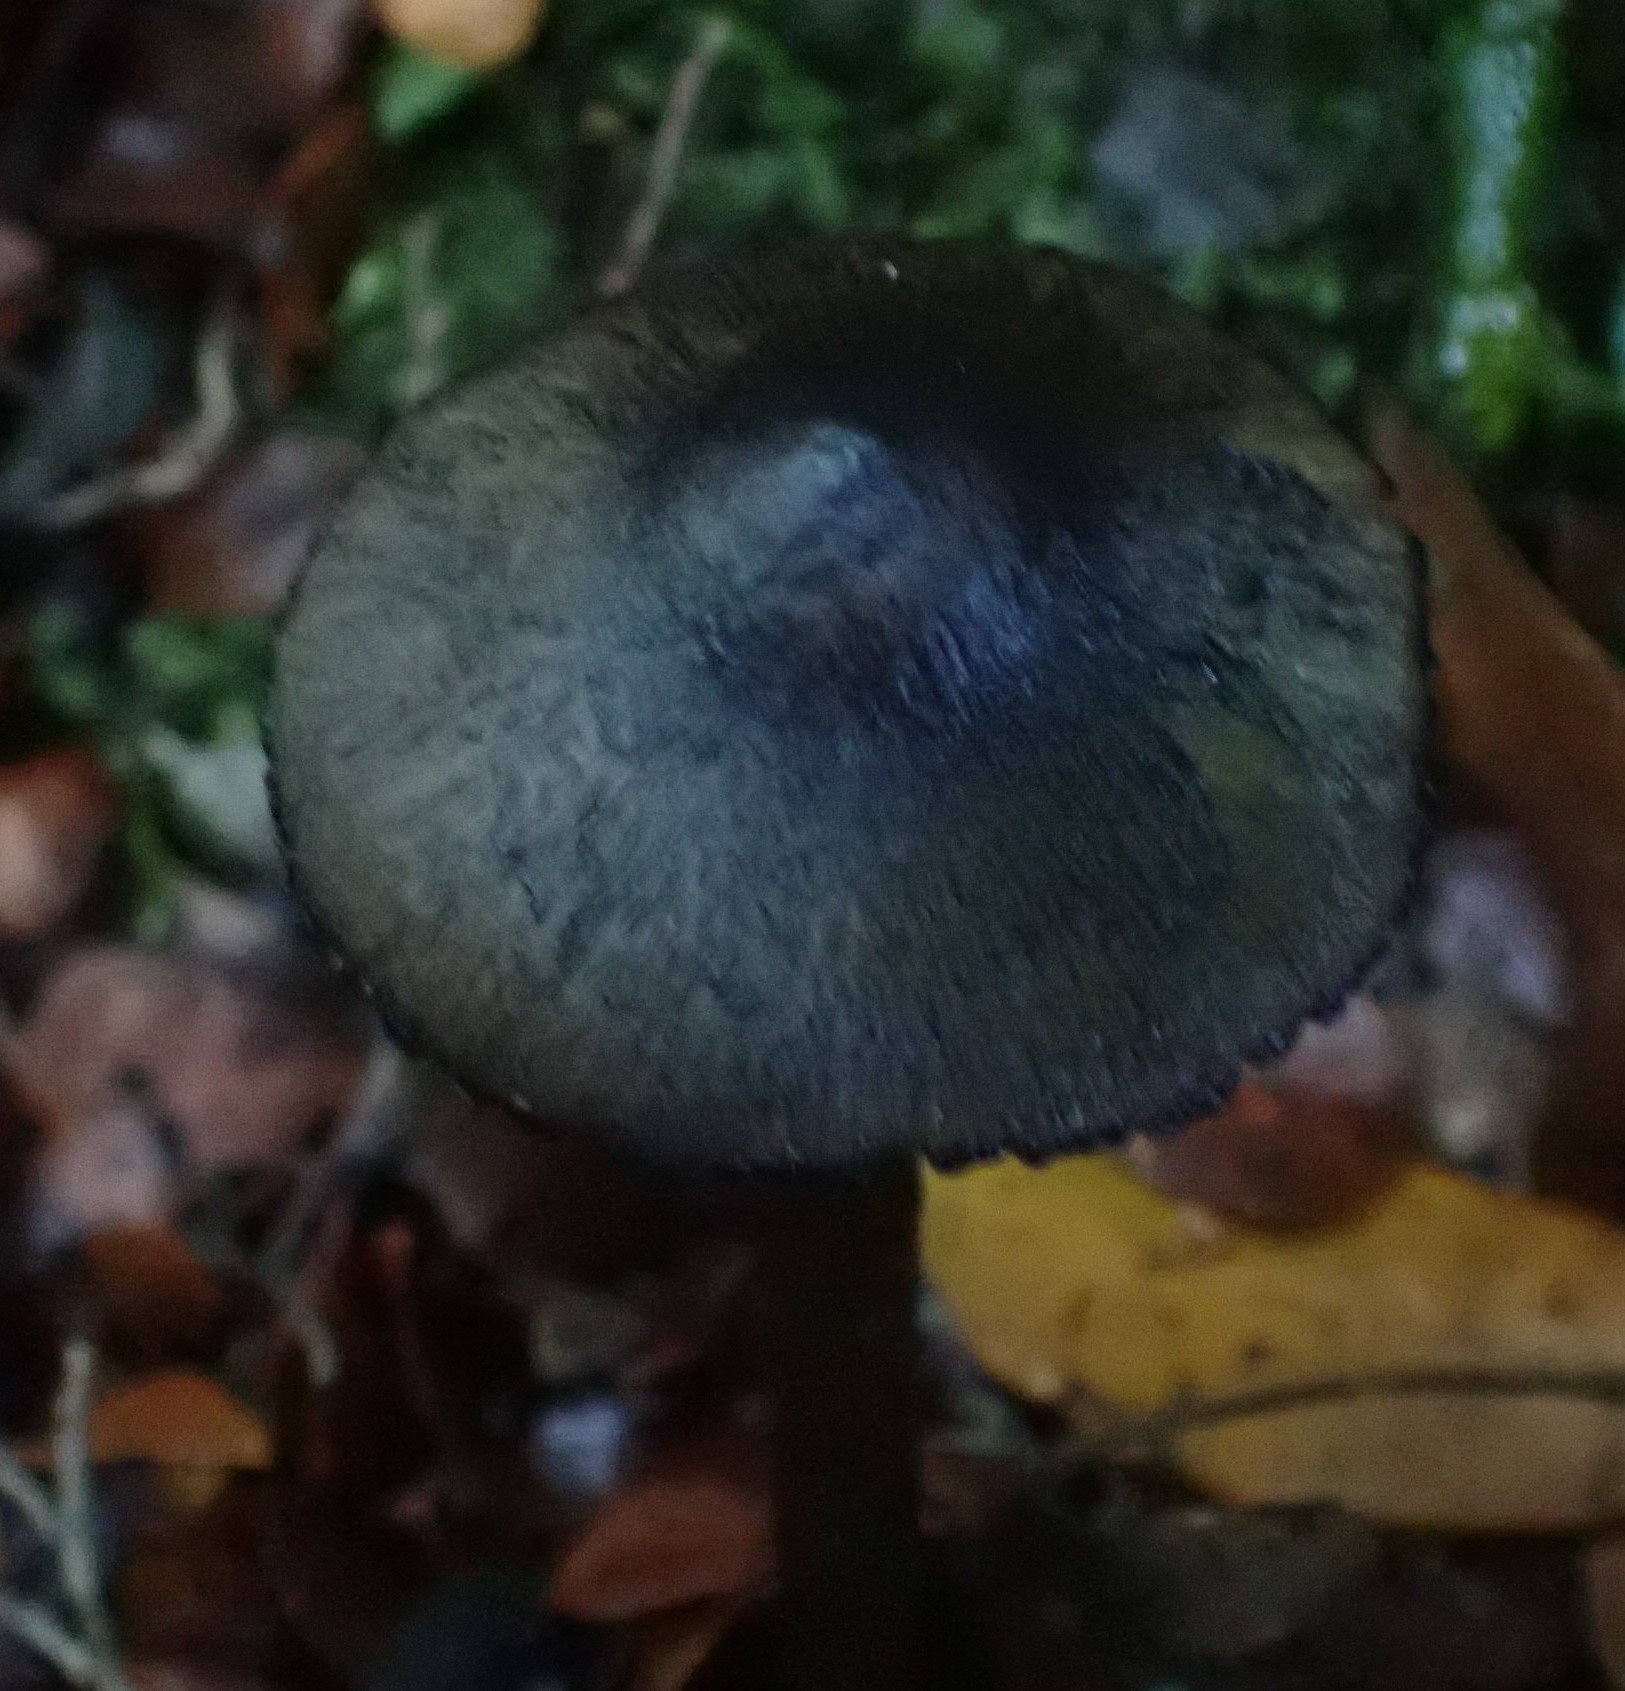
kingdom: Fungi
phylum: Basidiomycota
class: Agaricomycetes
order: Agaricales
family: Hygrophoraceae
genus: Hygrocybe
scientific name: Hygrocybe astatogala
